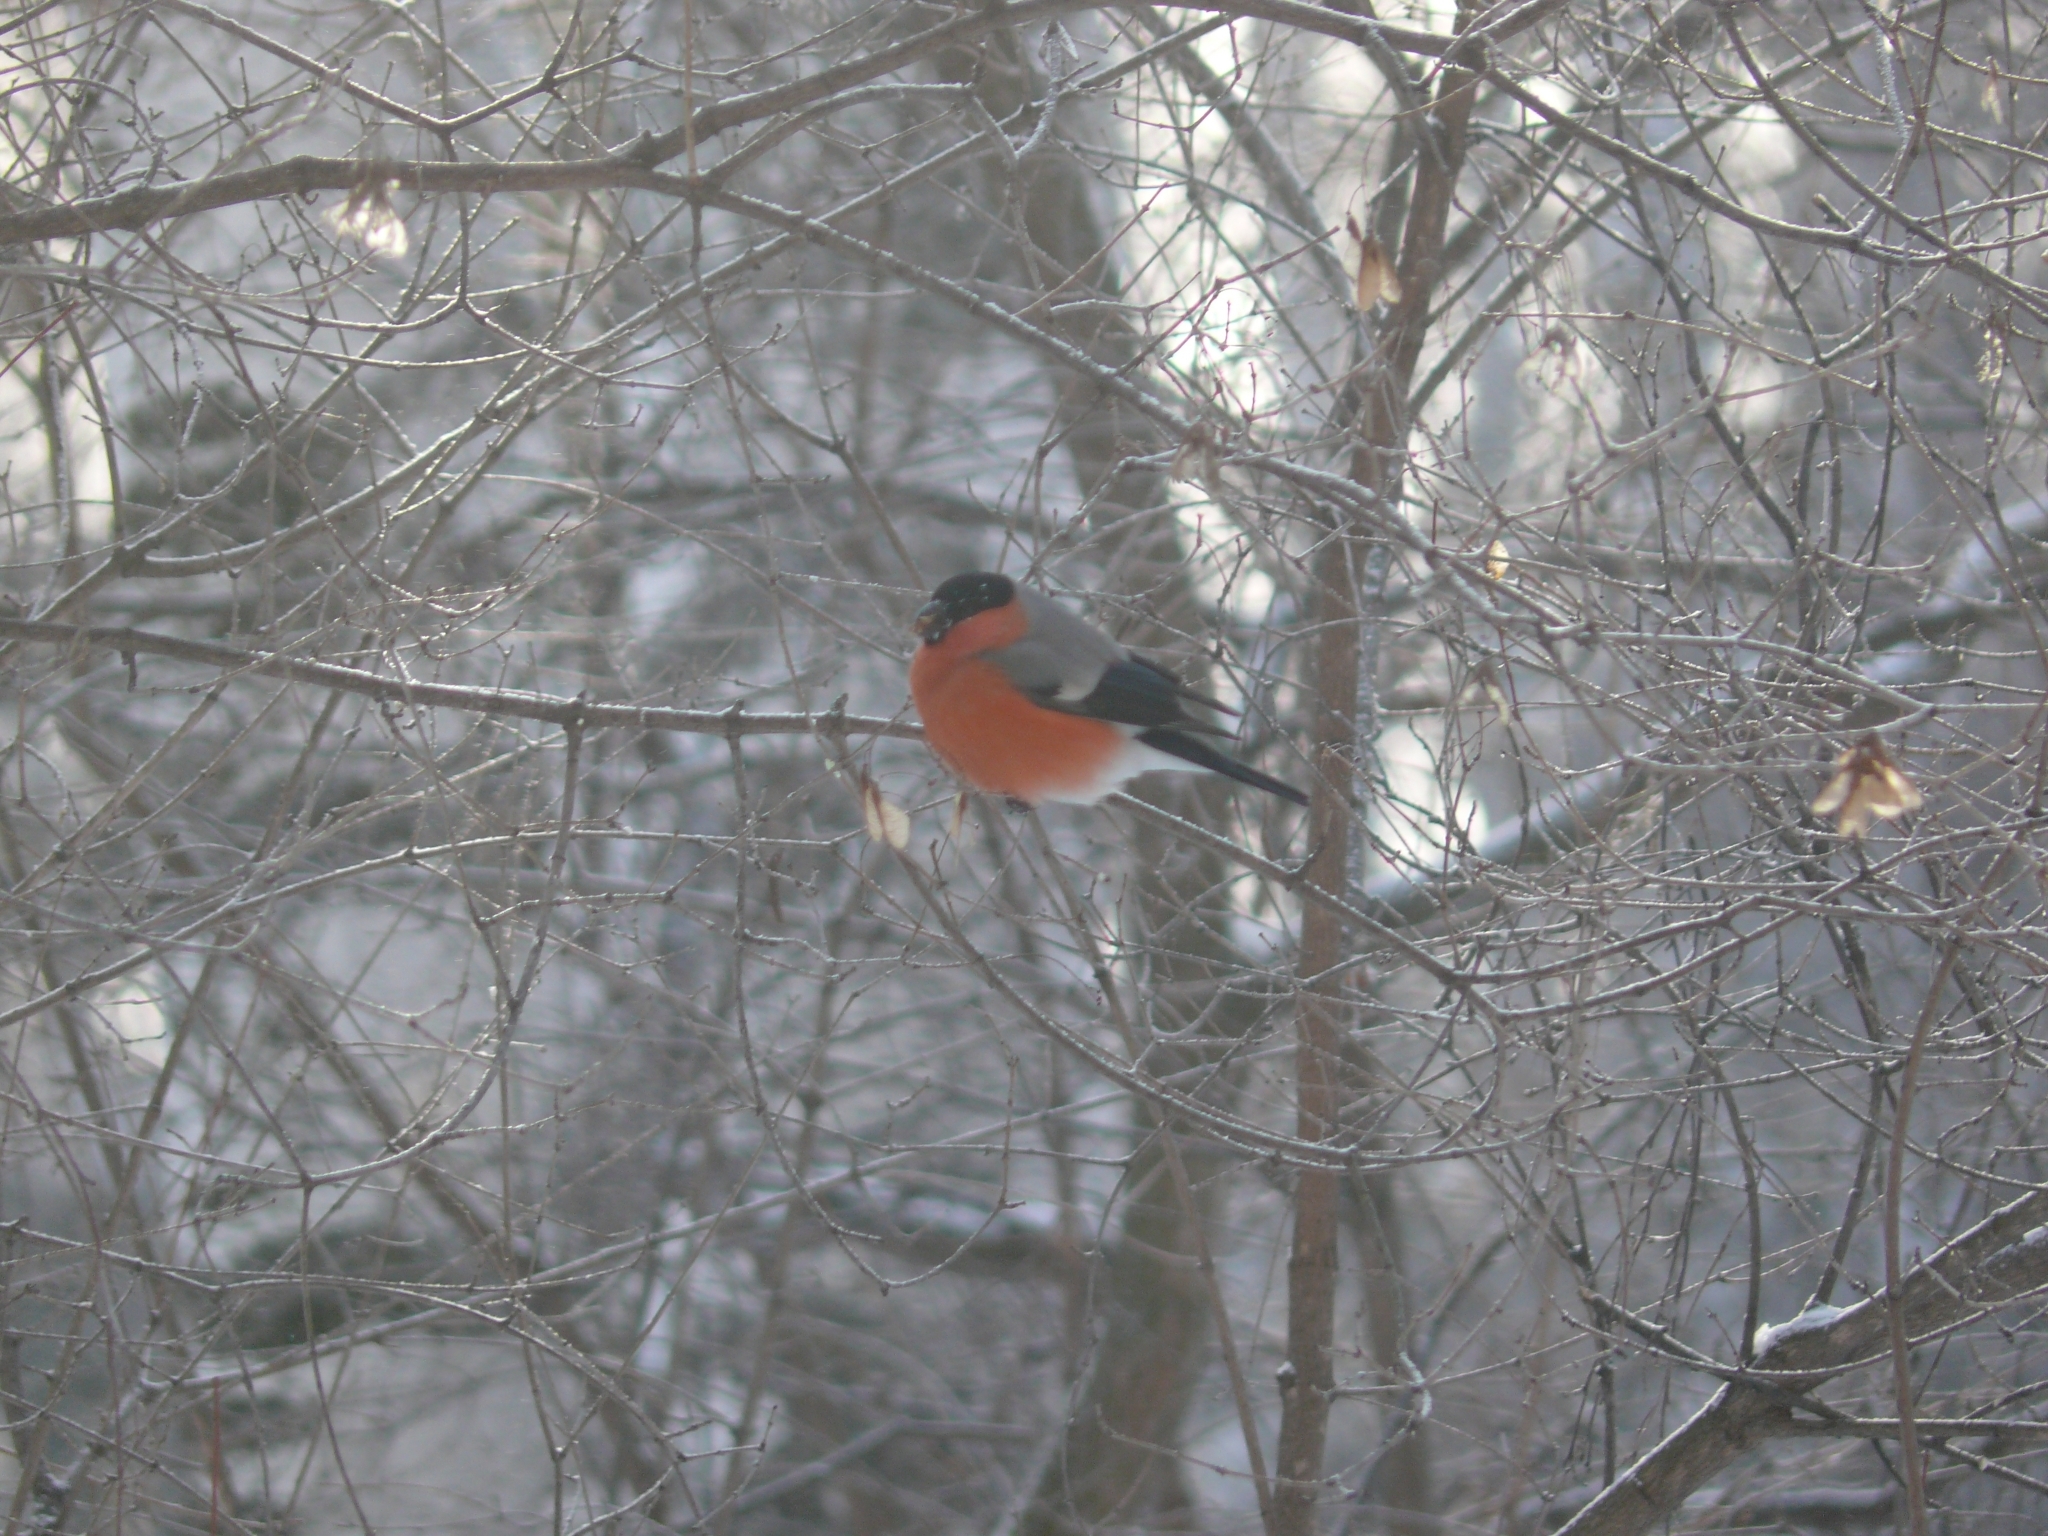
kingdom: Animalia
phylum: Chordata
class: Aves
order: Passeriformes
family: Fringillidae
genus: Pyrrhula
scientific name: Pyrrhula pyrrhula
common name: Eurasian bullfinch
